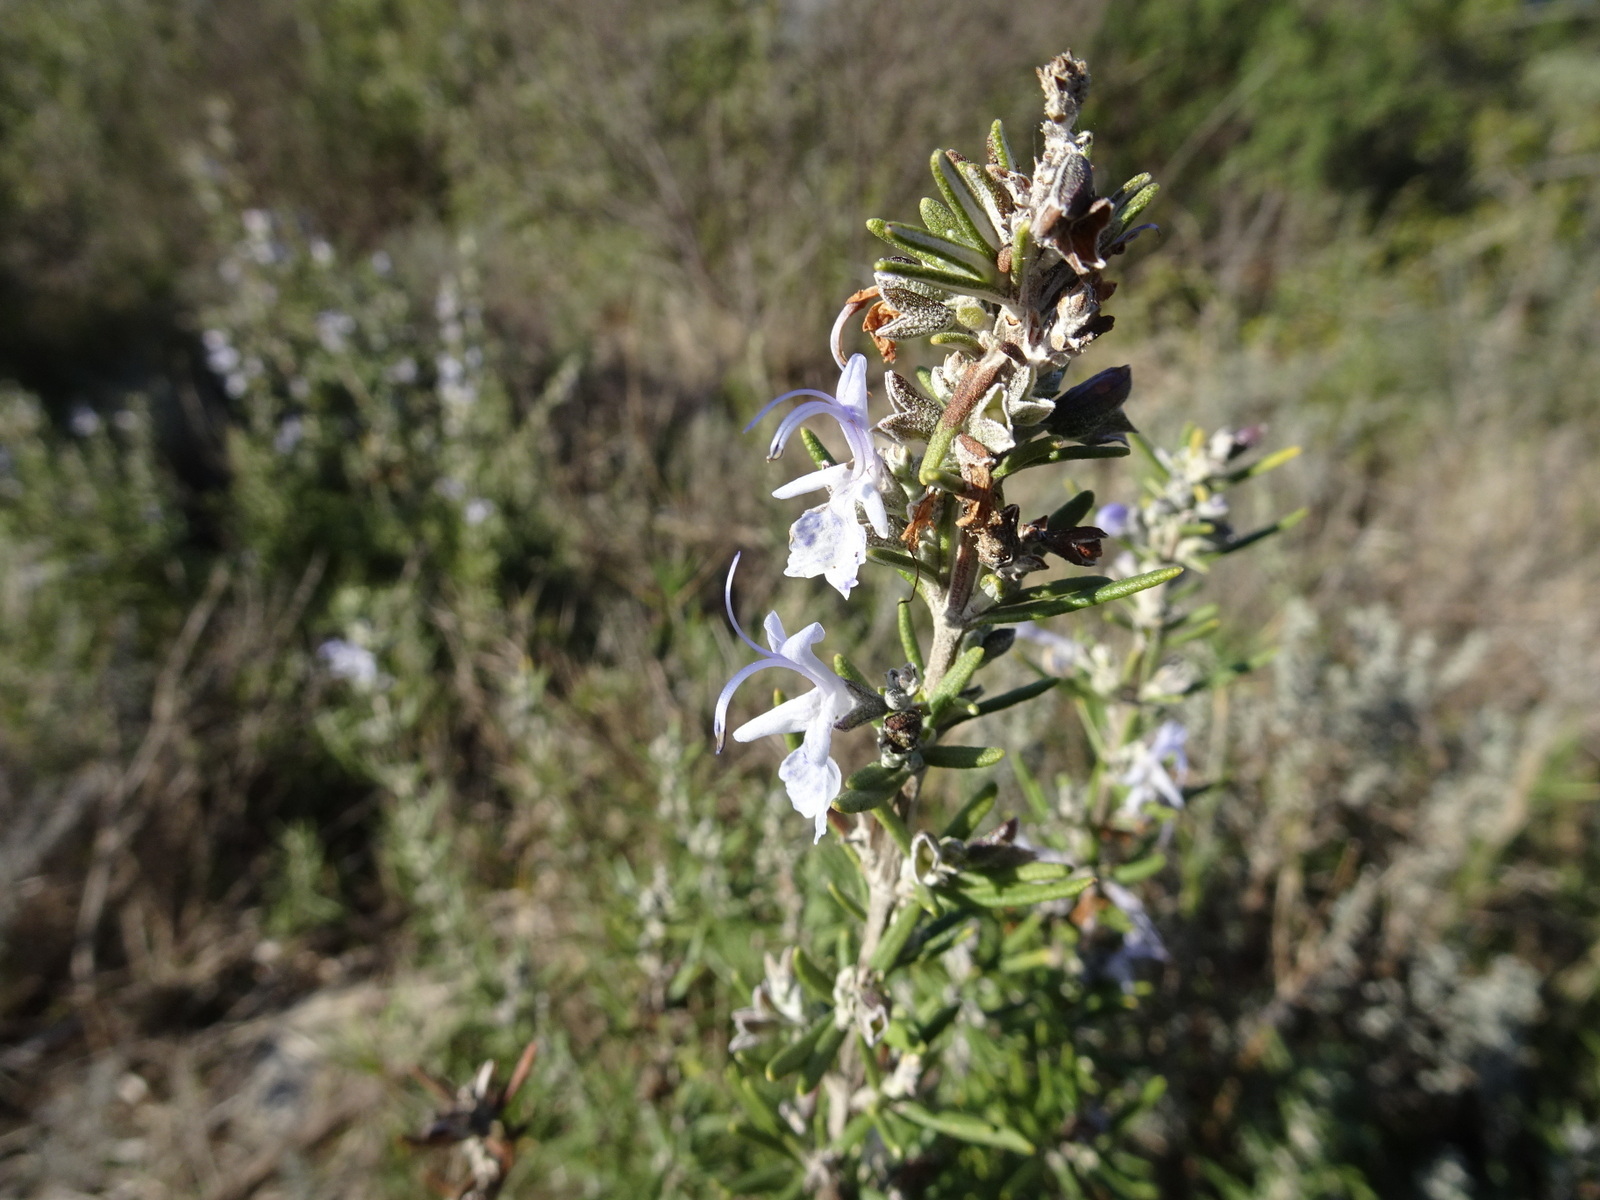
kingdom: Plantae
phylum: Tracheophyta
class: Magnoliopsida
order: Lamiales
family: Lamiaceae
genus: Salvia
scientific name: Salvia rosmarinus
